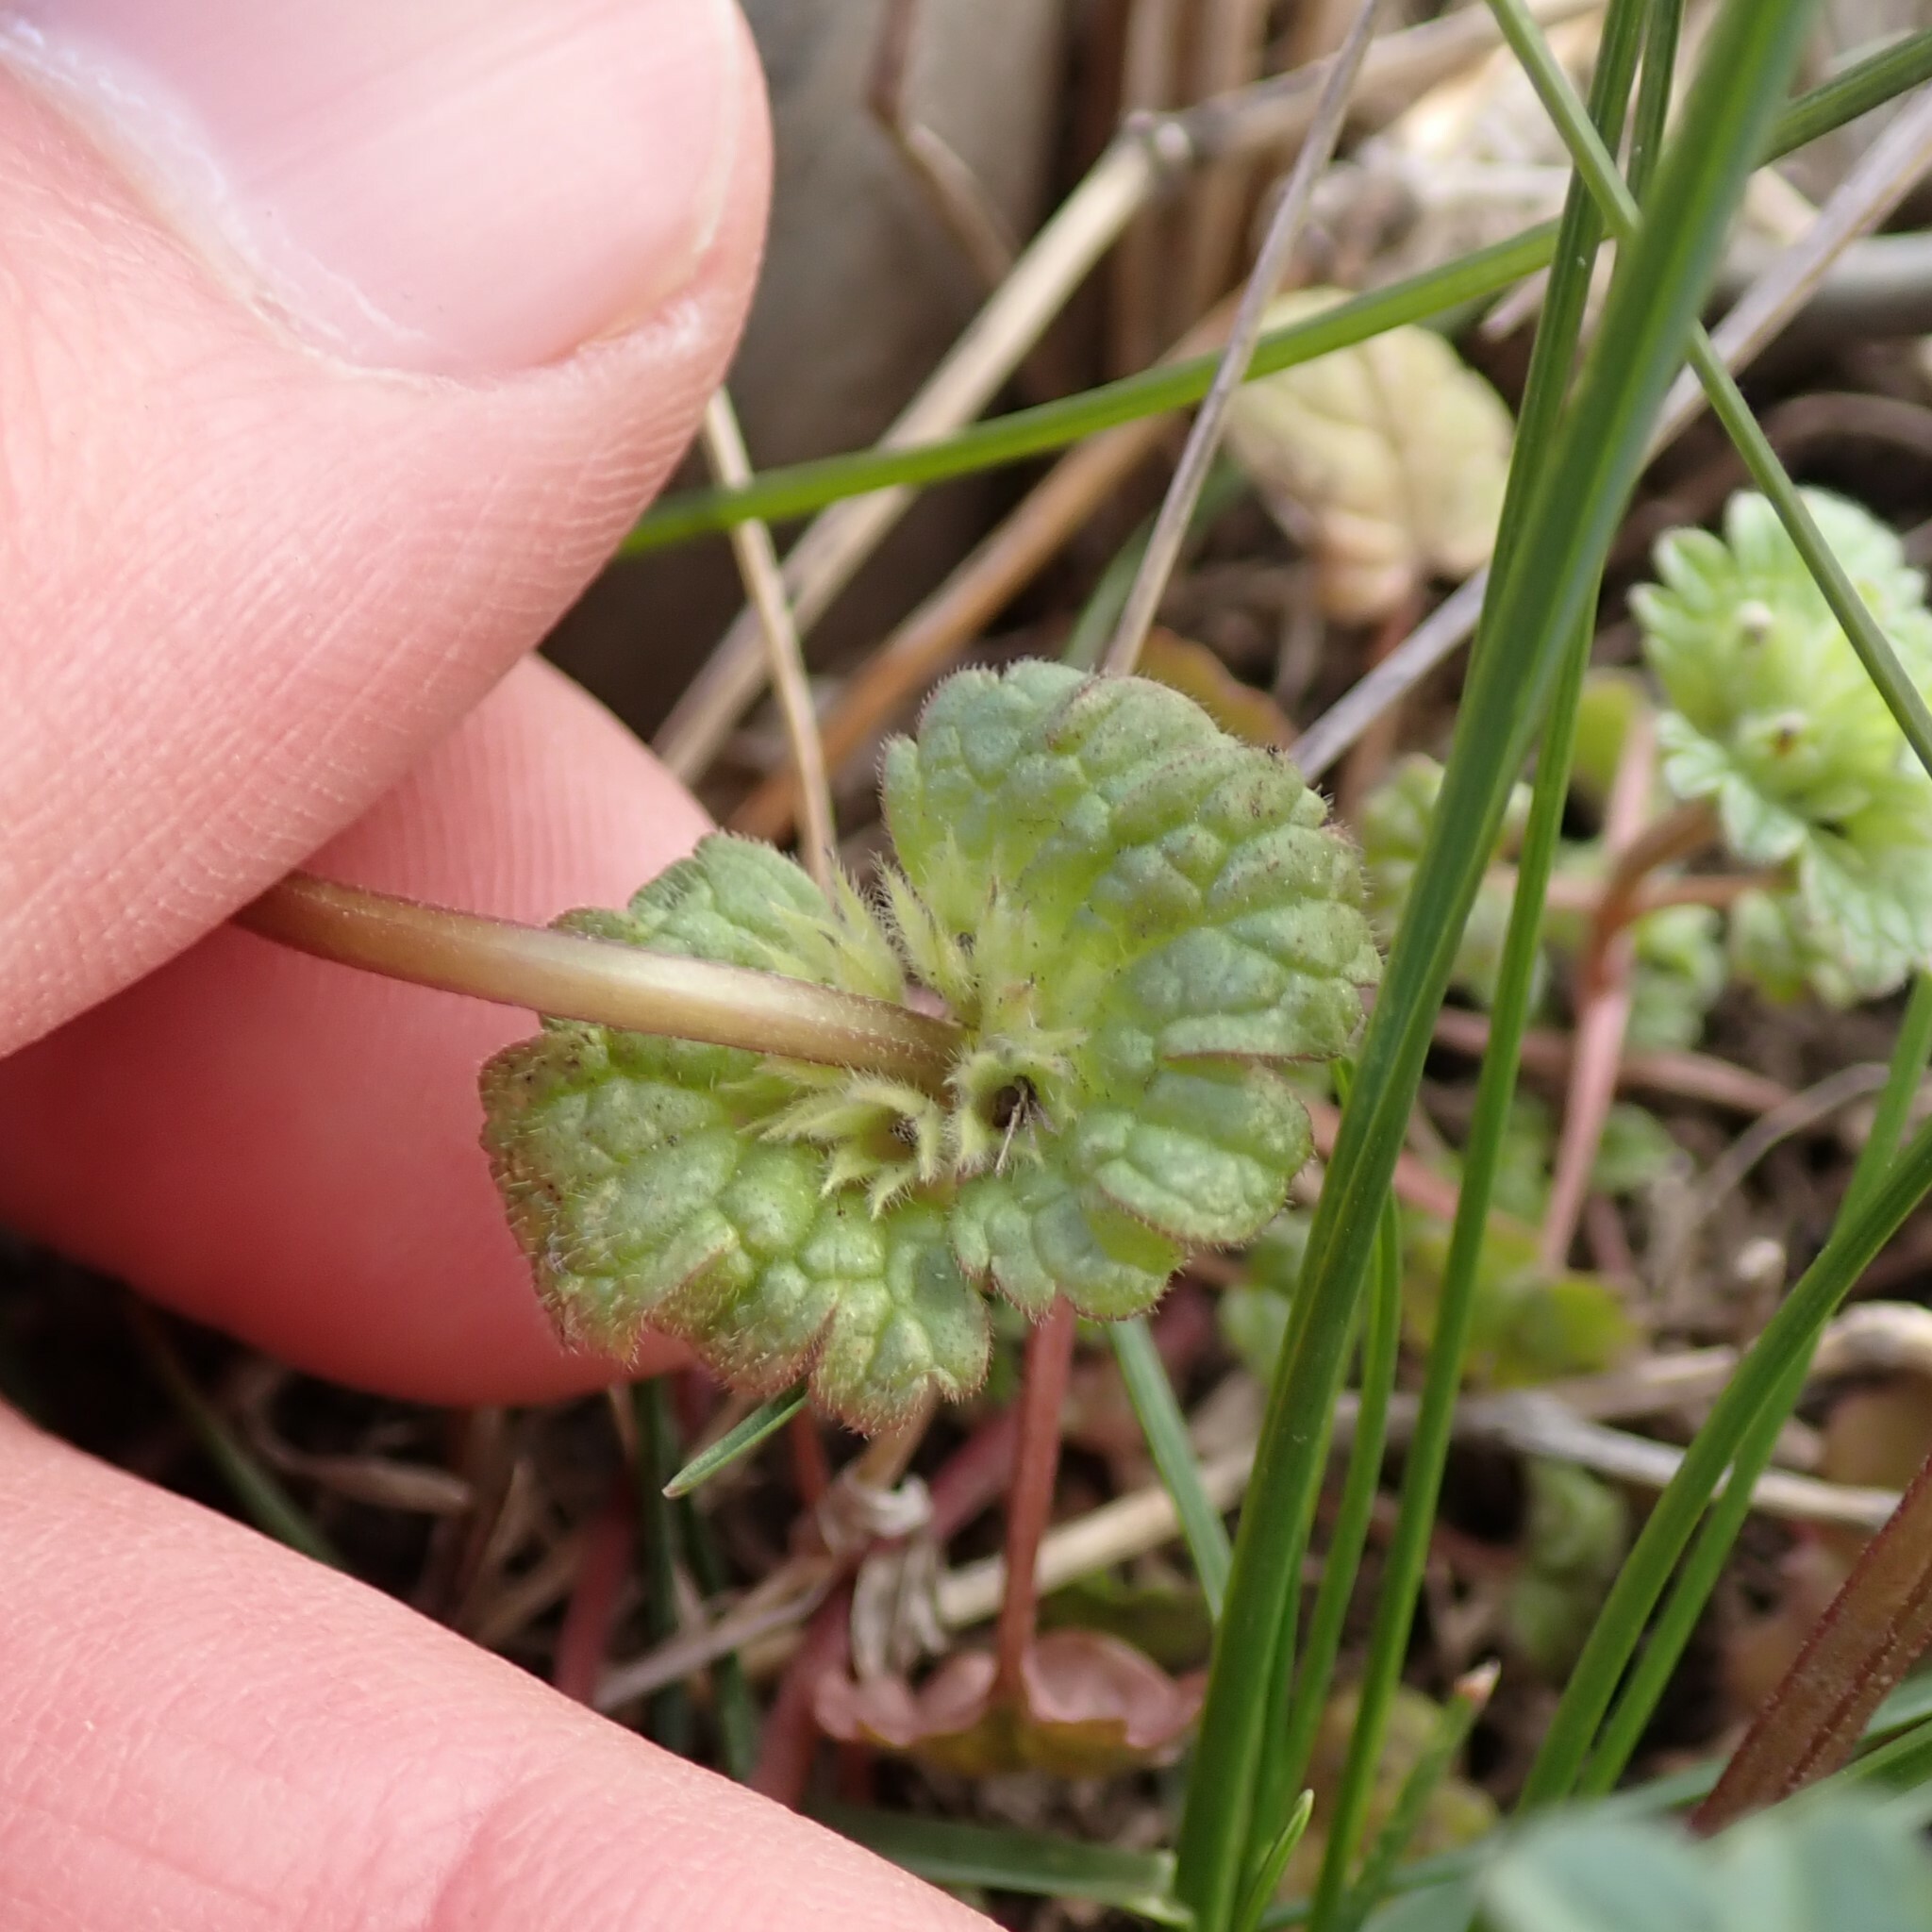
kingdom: Plantae
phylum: Tracheophyta
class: Magnoliopsida
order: Lamiales
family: Lamiaceae
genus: Lamium
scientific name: Lamium amplexicaule
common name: Henbit dead-nettle
